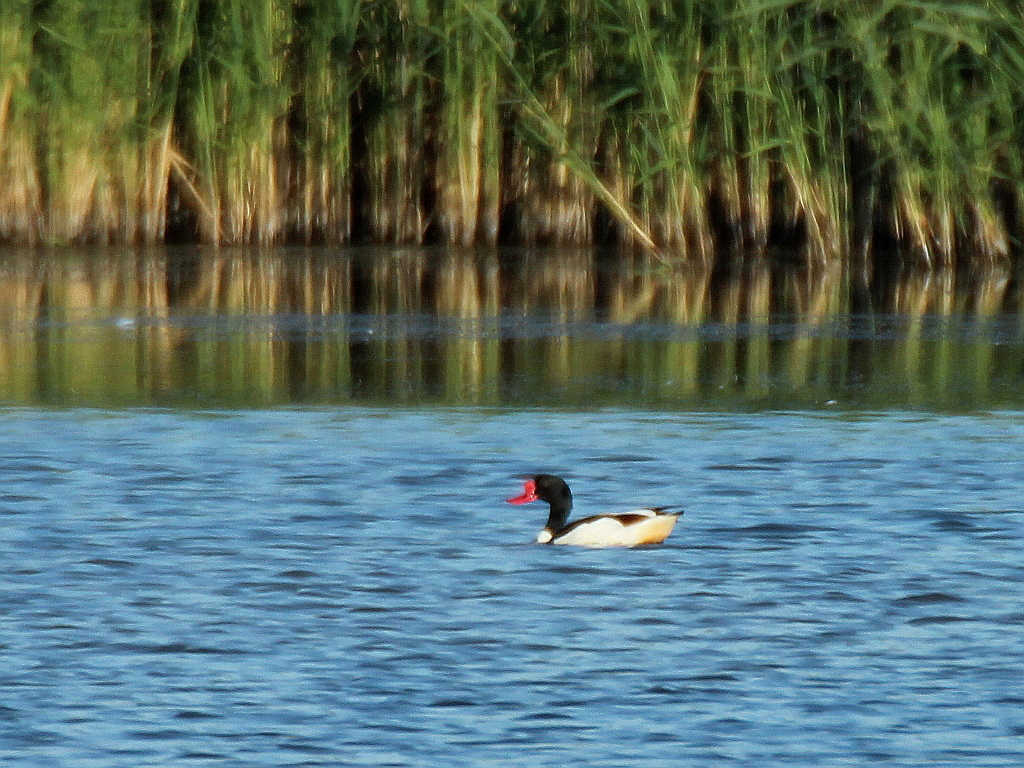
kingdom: Animalia
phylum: Chordata
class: Aves
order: Anseriformes
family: Anatidae
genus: Tadorna
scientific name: Tadorna tadorna
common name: Common shelduck
